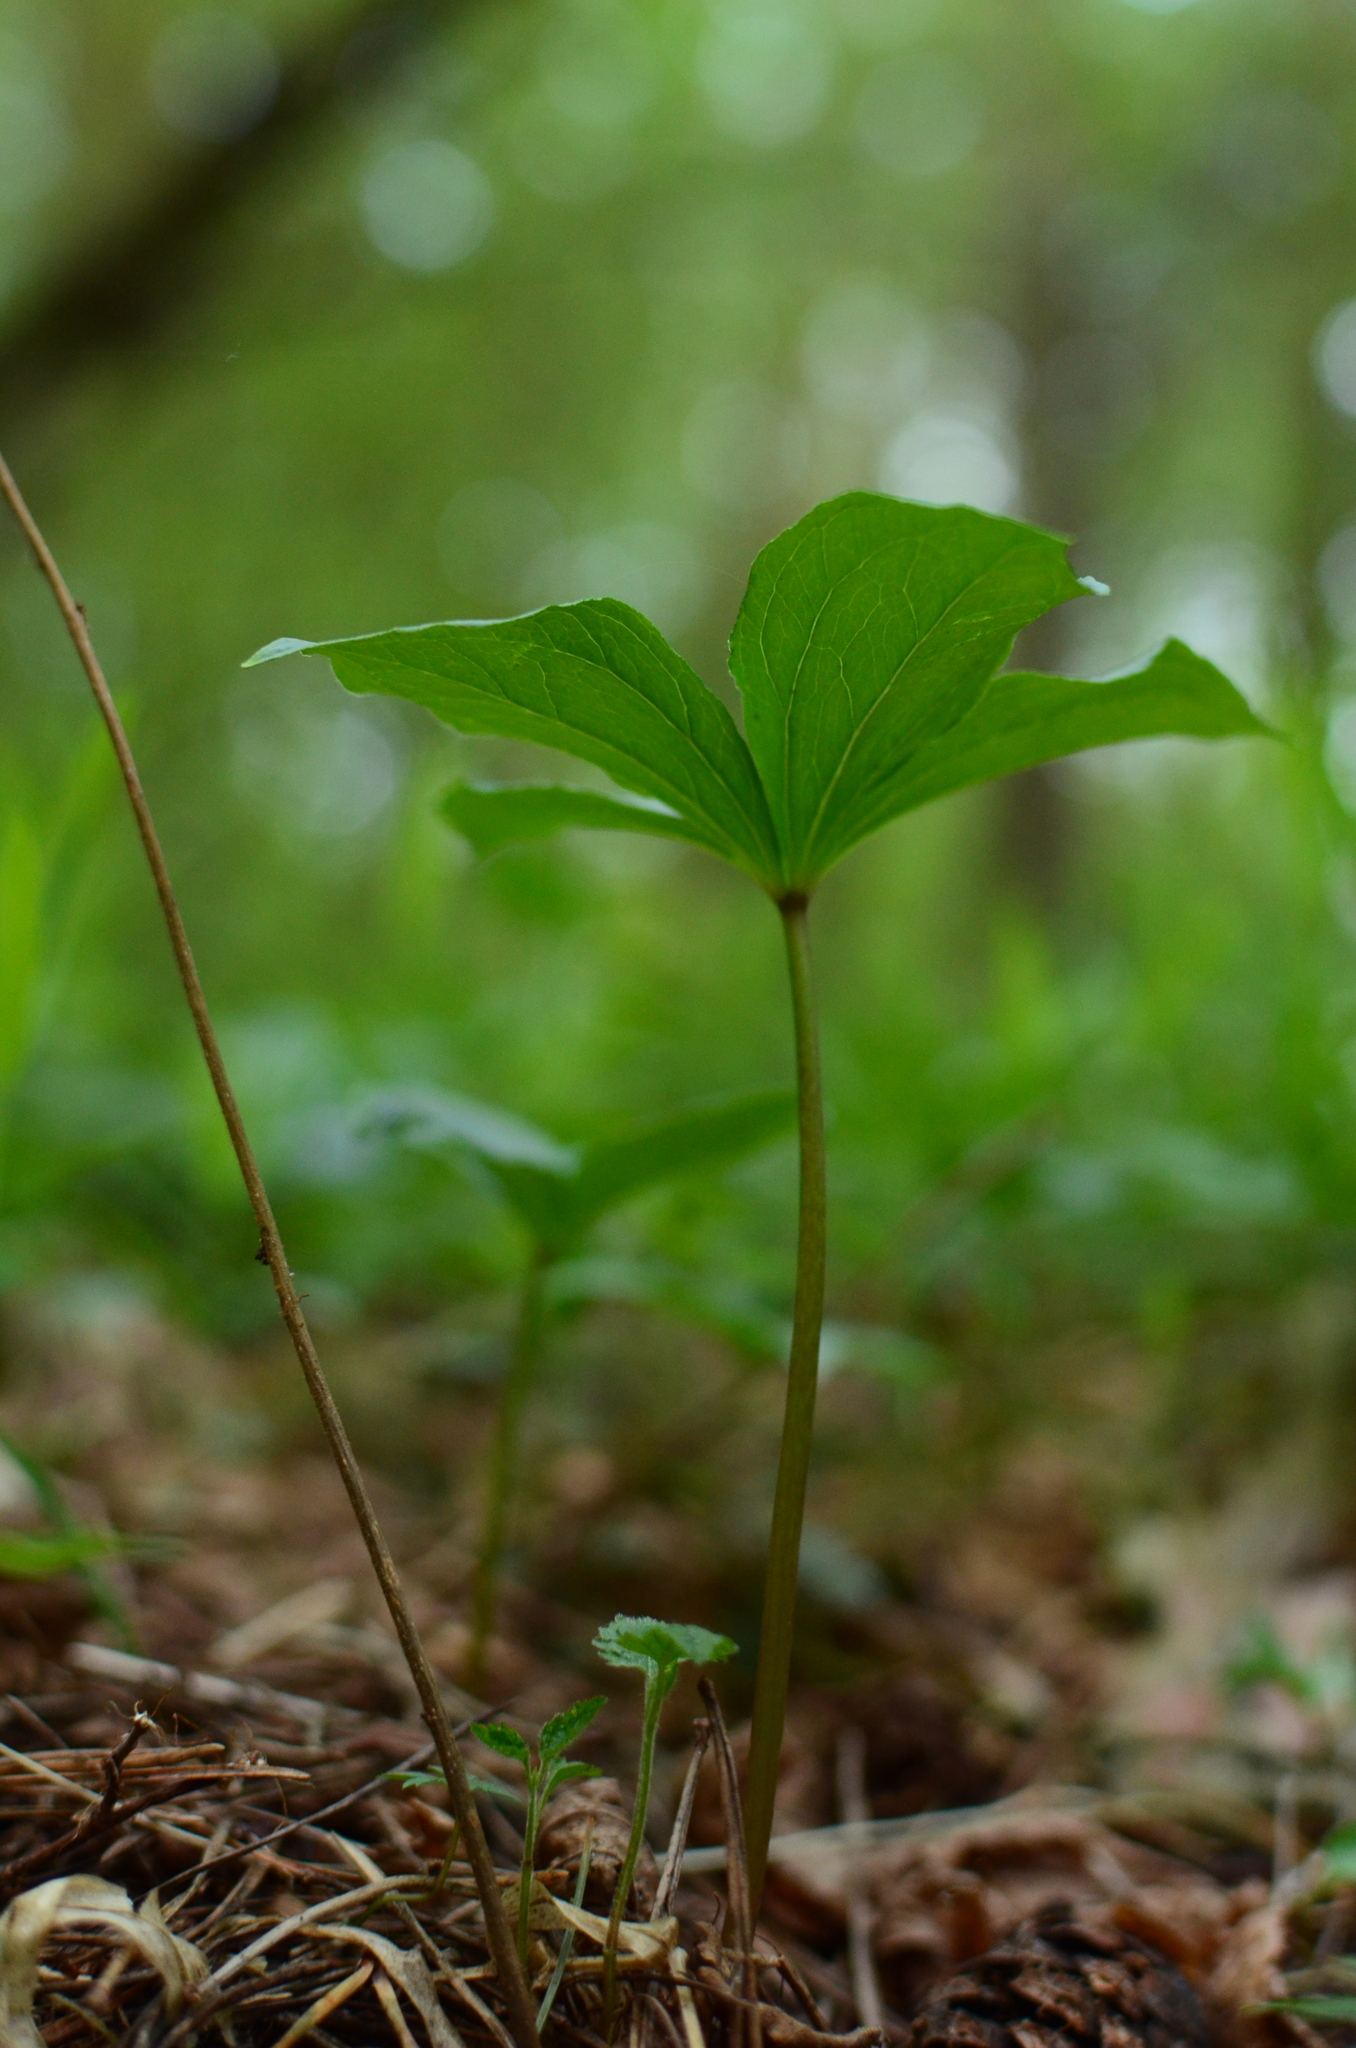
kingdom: Plantae
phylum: Tracheophyta
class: Liliopsida
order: Liliales
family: Melanthiaceae
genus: Paris
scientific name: Paris quadrifolia
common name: Herb-paris
